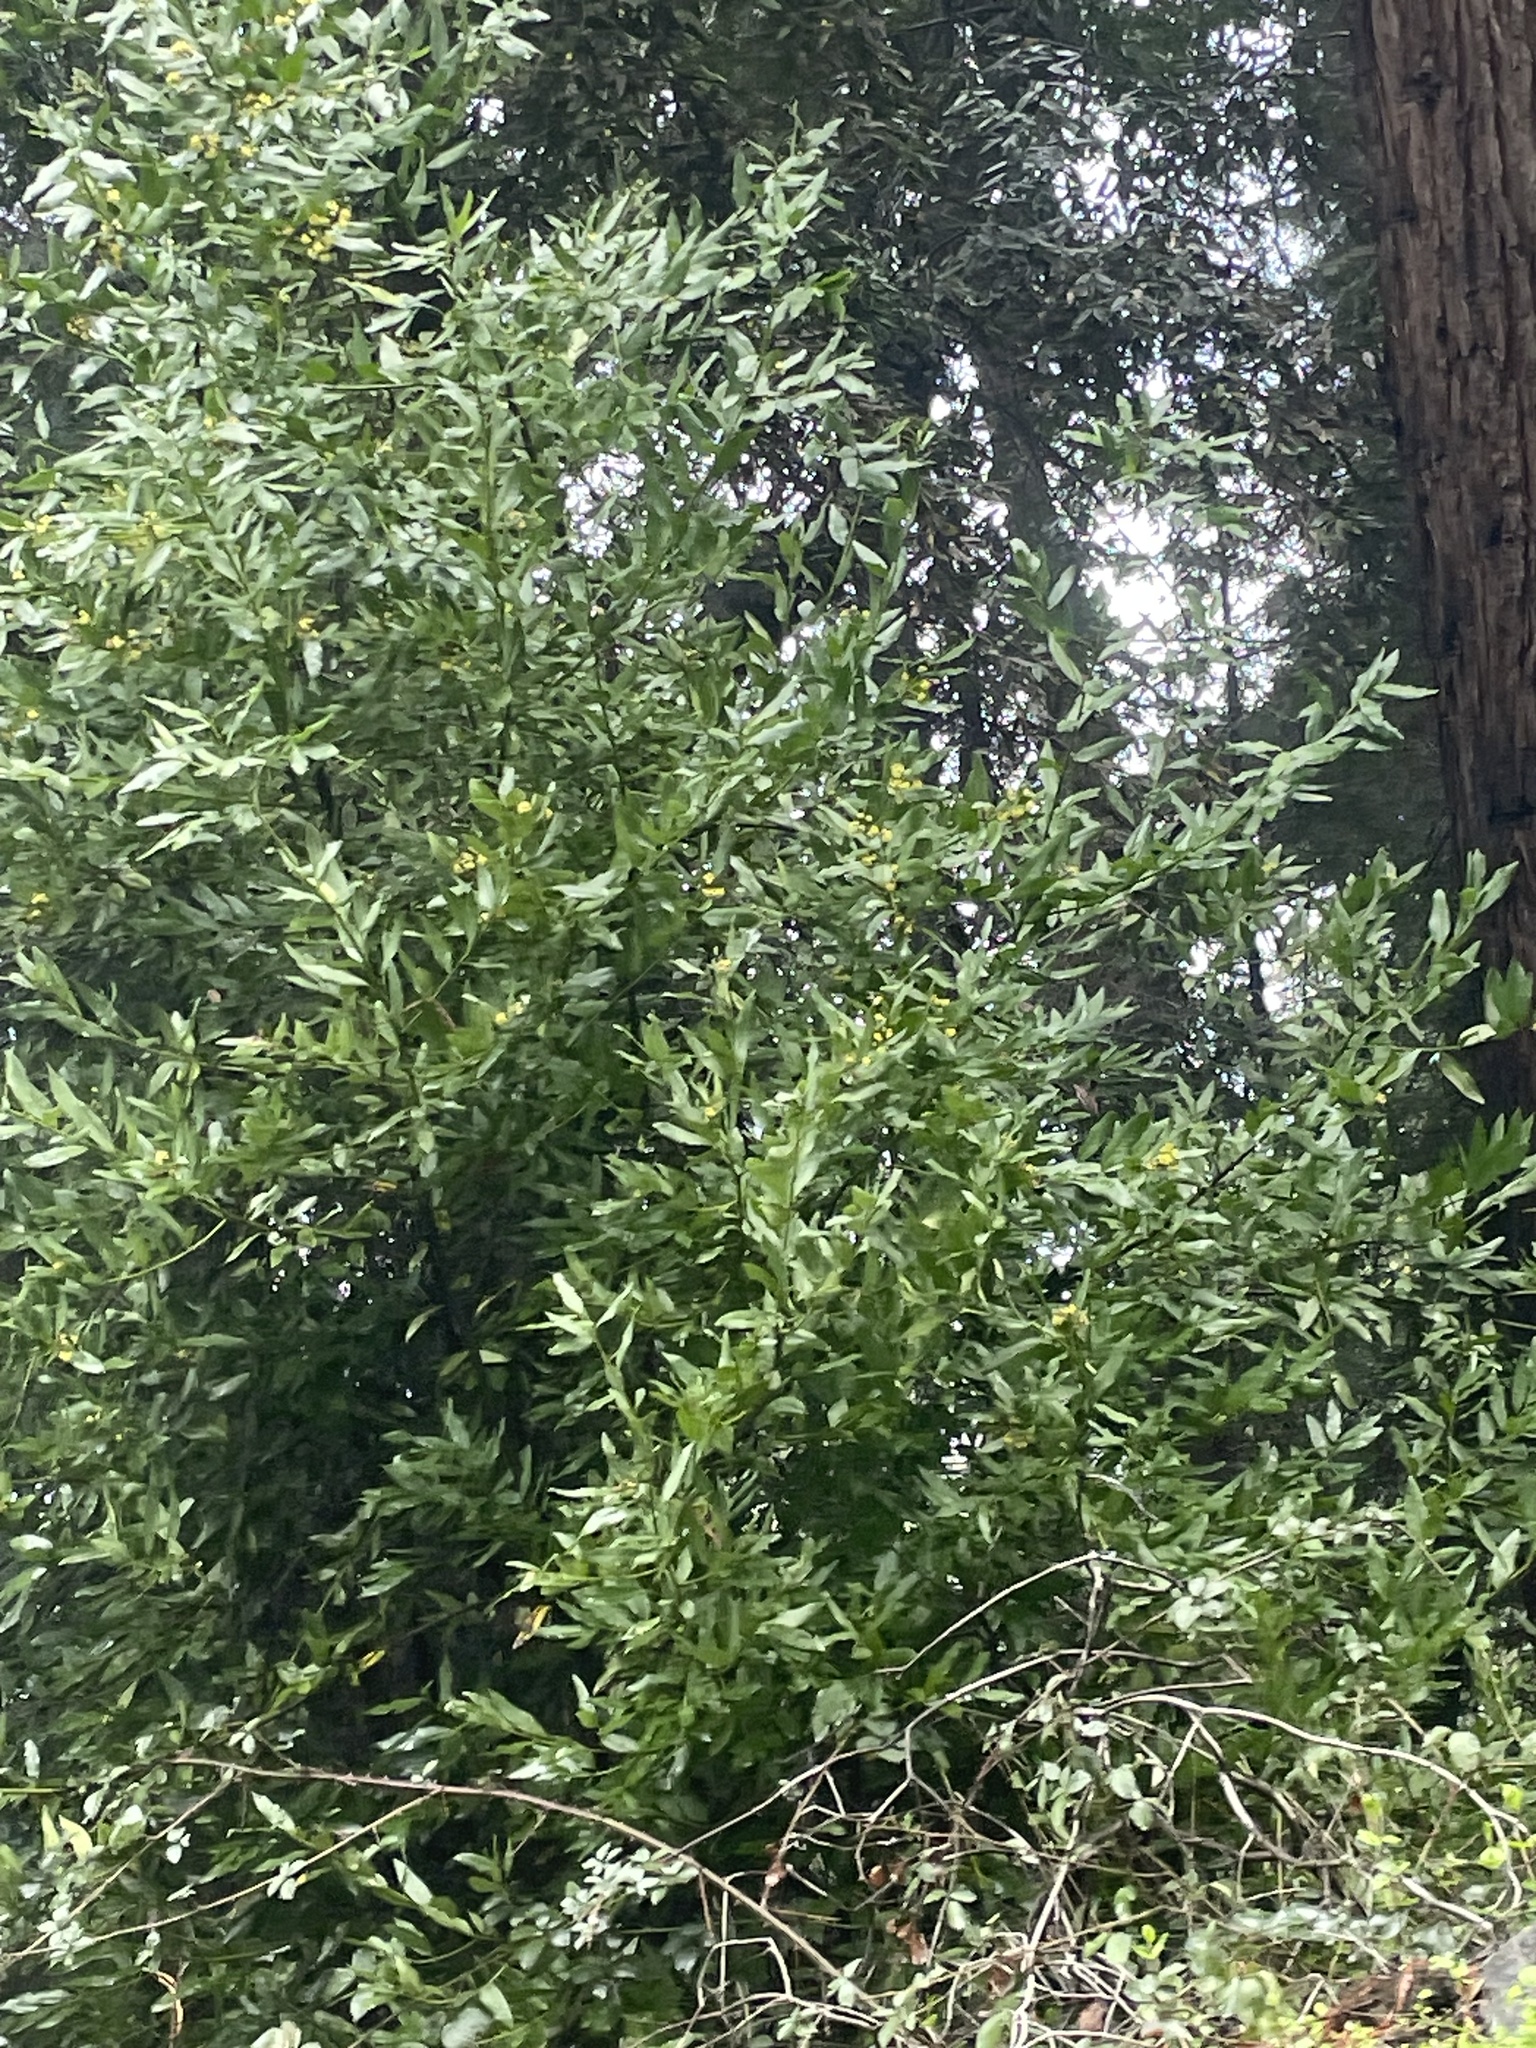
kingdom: Plantae
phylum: Tracheophyta
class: Magnoliopsida
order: Laurales
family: Lauraceae
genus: Umbellularia
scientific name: Umbellularia californica
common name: California bay
